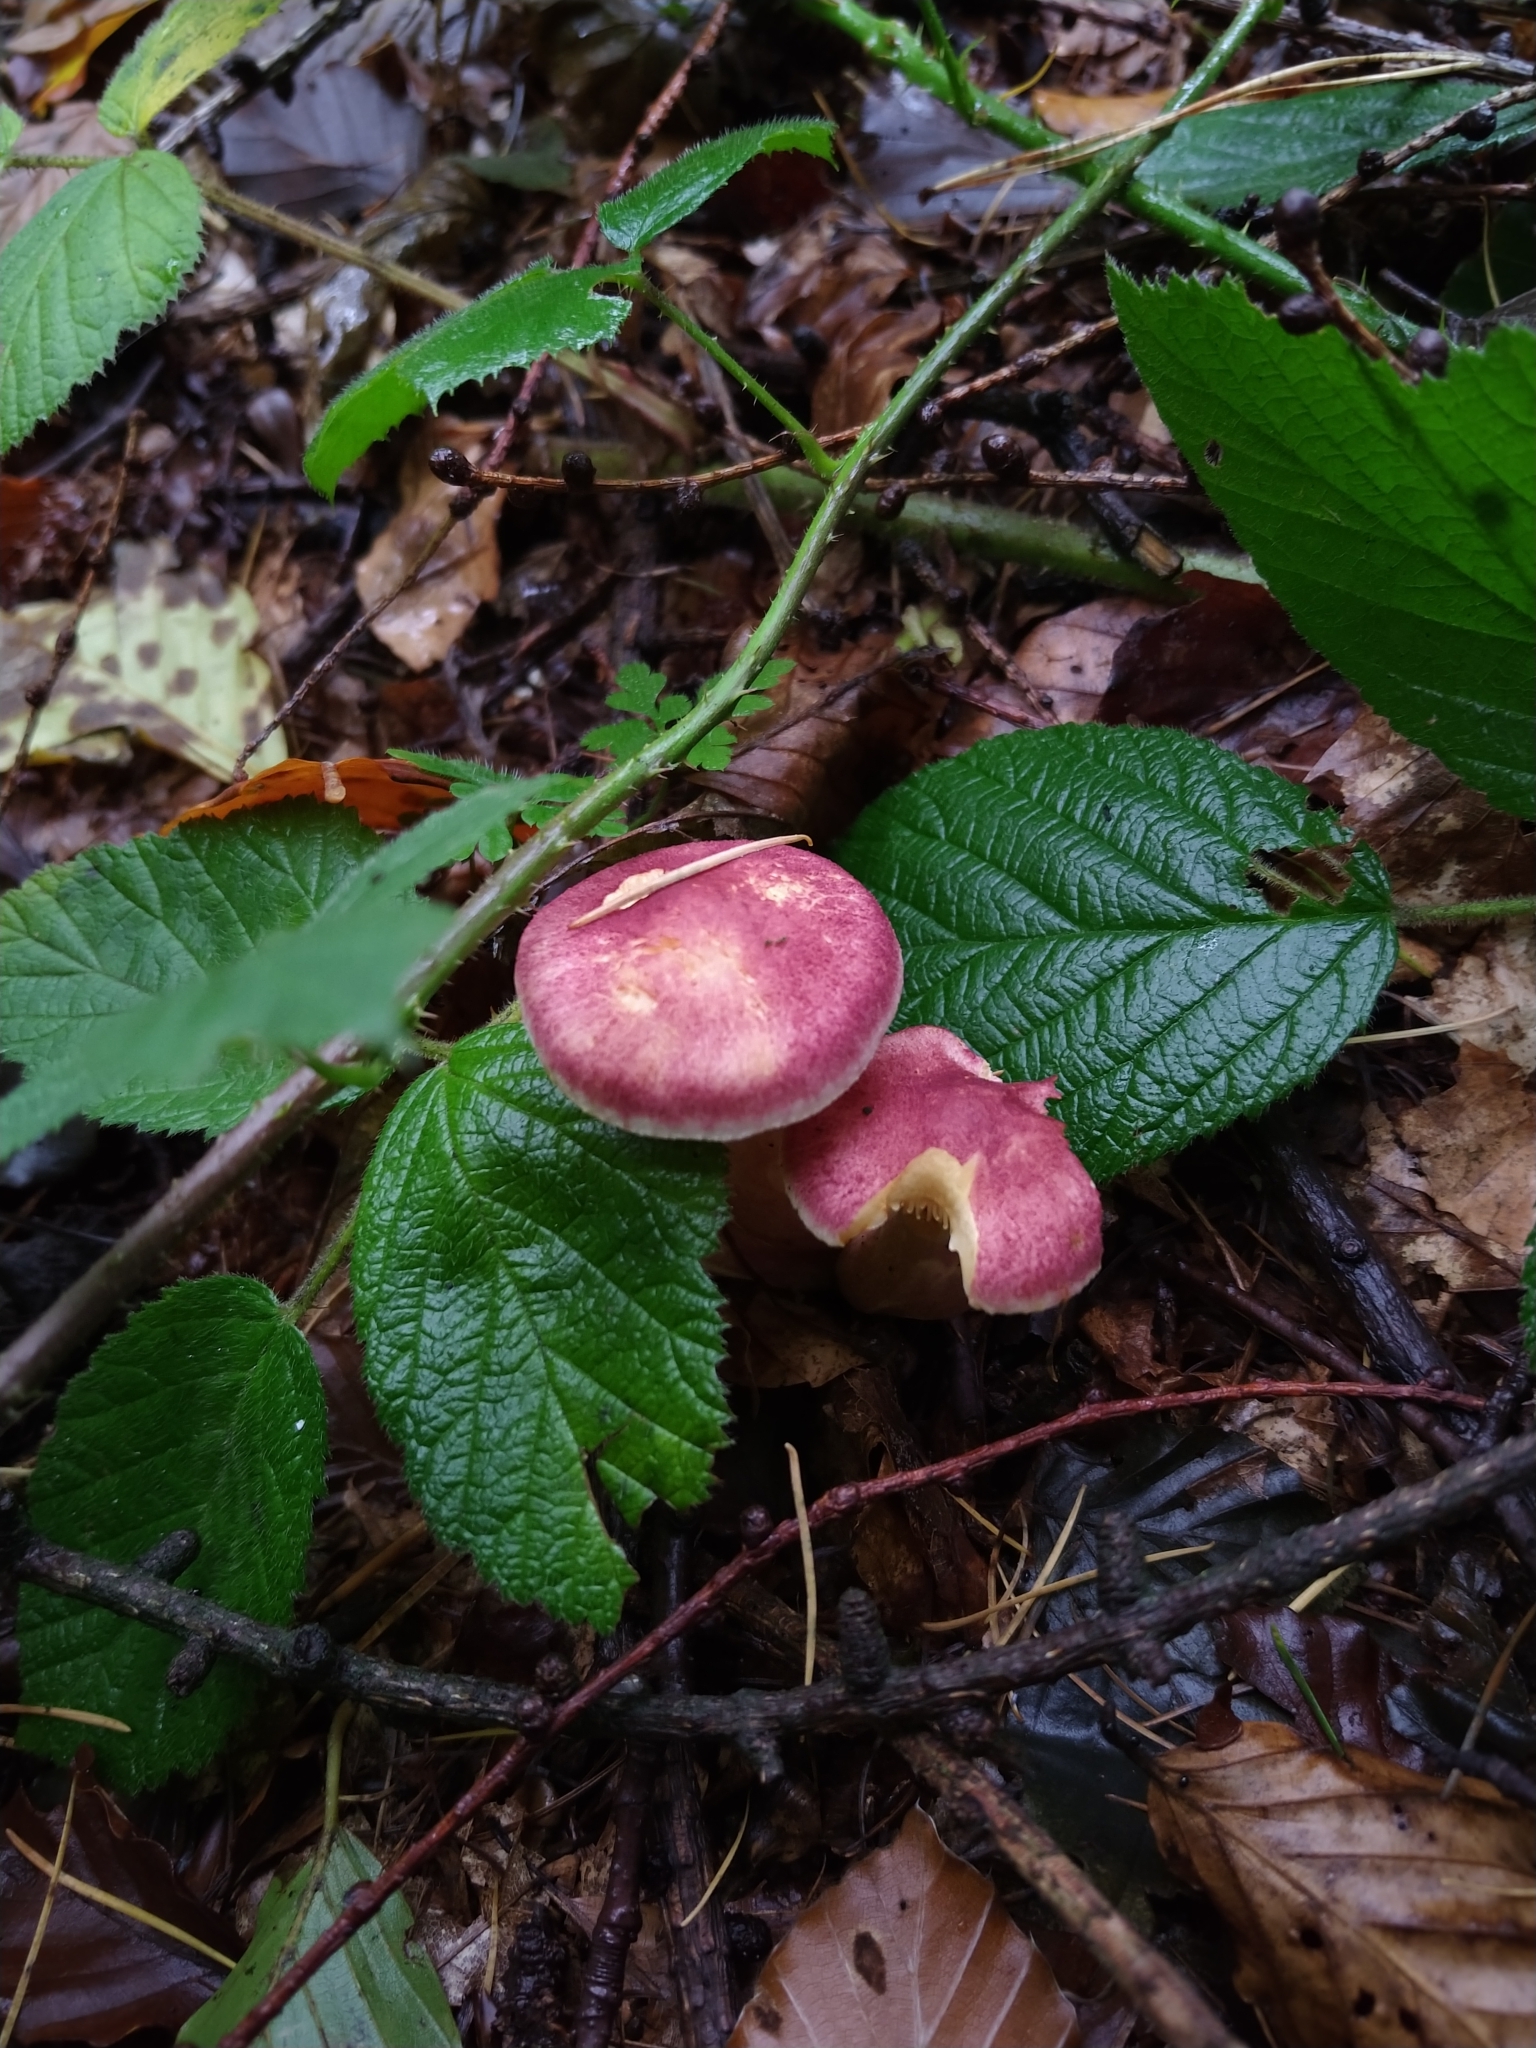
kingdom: Fungi
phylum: Basidiomycota
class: Agaricomycetes
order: Agaricales
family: Tricholomataceae
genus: Tricholomopsis
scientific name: Tricholomopsis rutilans
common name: Plums and custard
